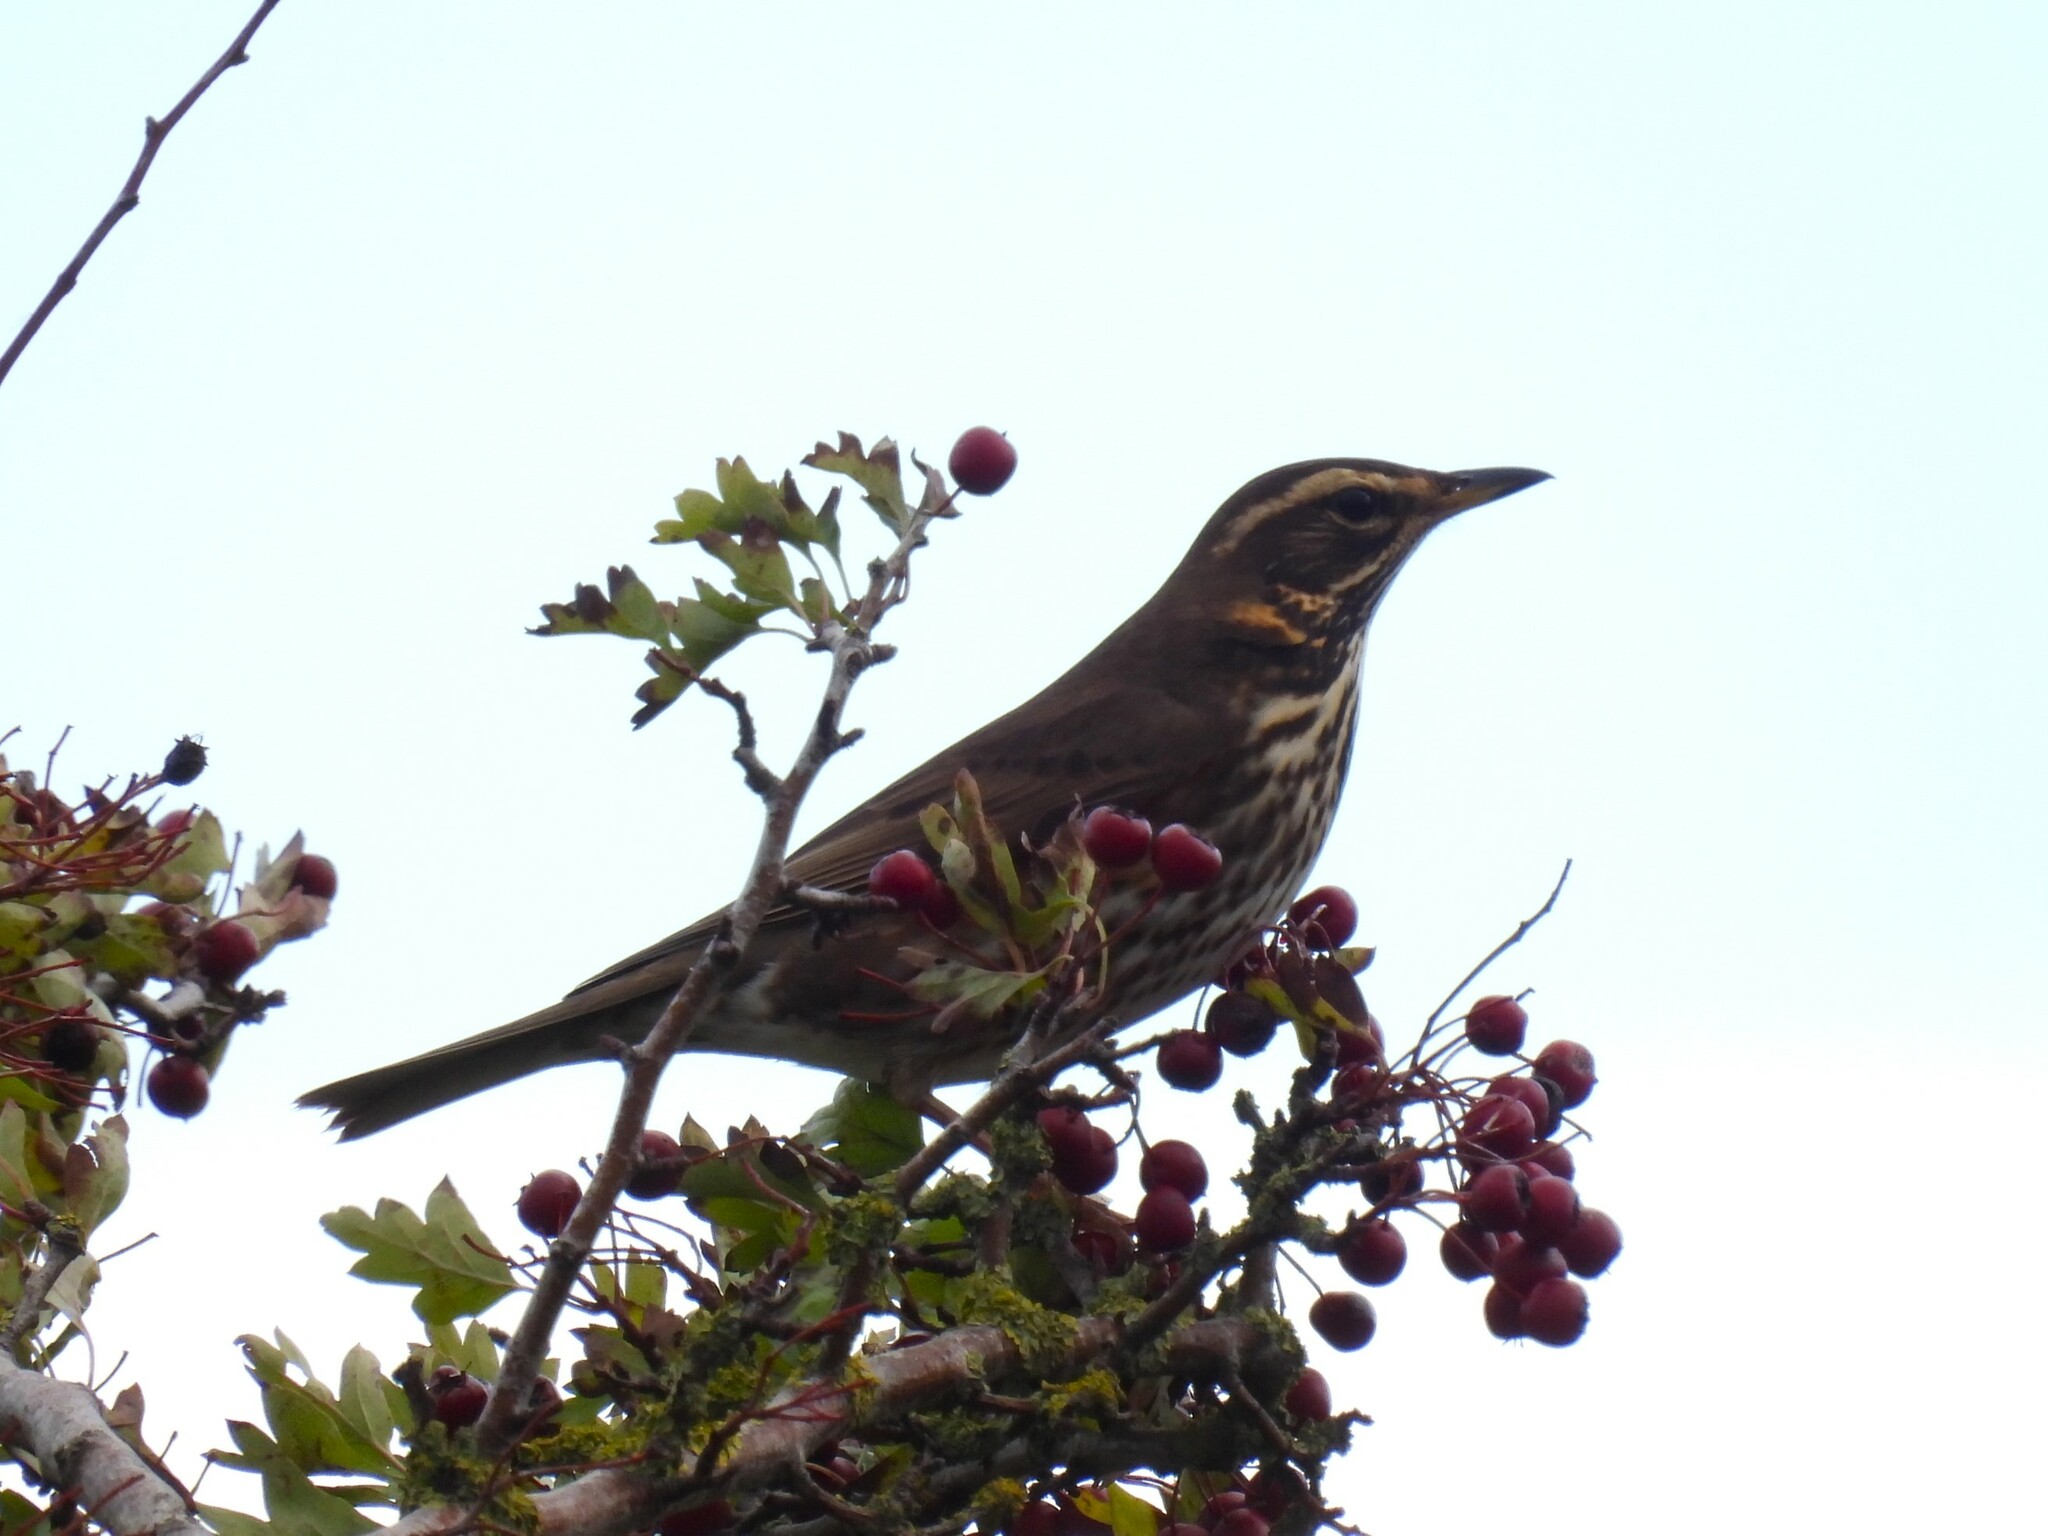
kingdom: Animalia
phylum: Chordata
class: Aves
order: Passeriformes
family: Turdidae
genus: Turdus
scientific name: Turdus iliacus
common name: Redwing
